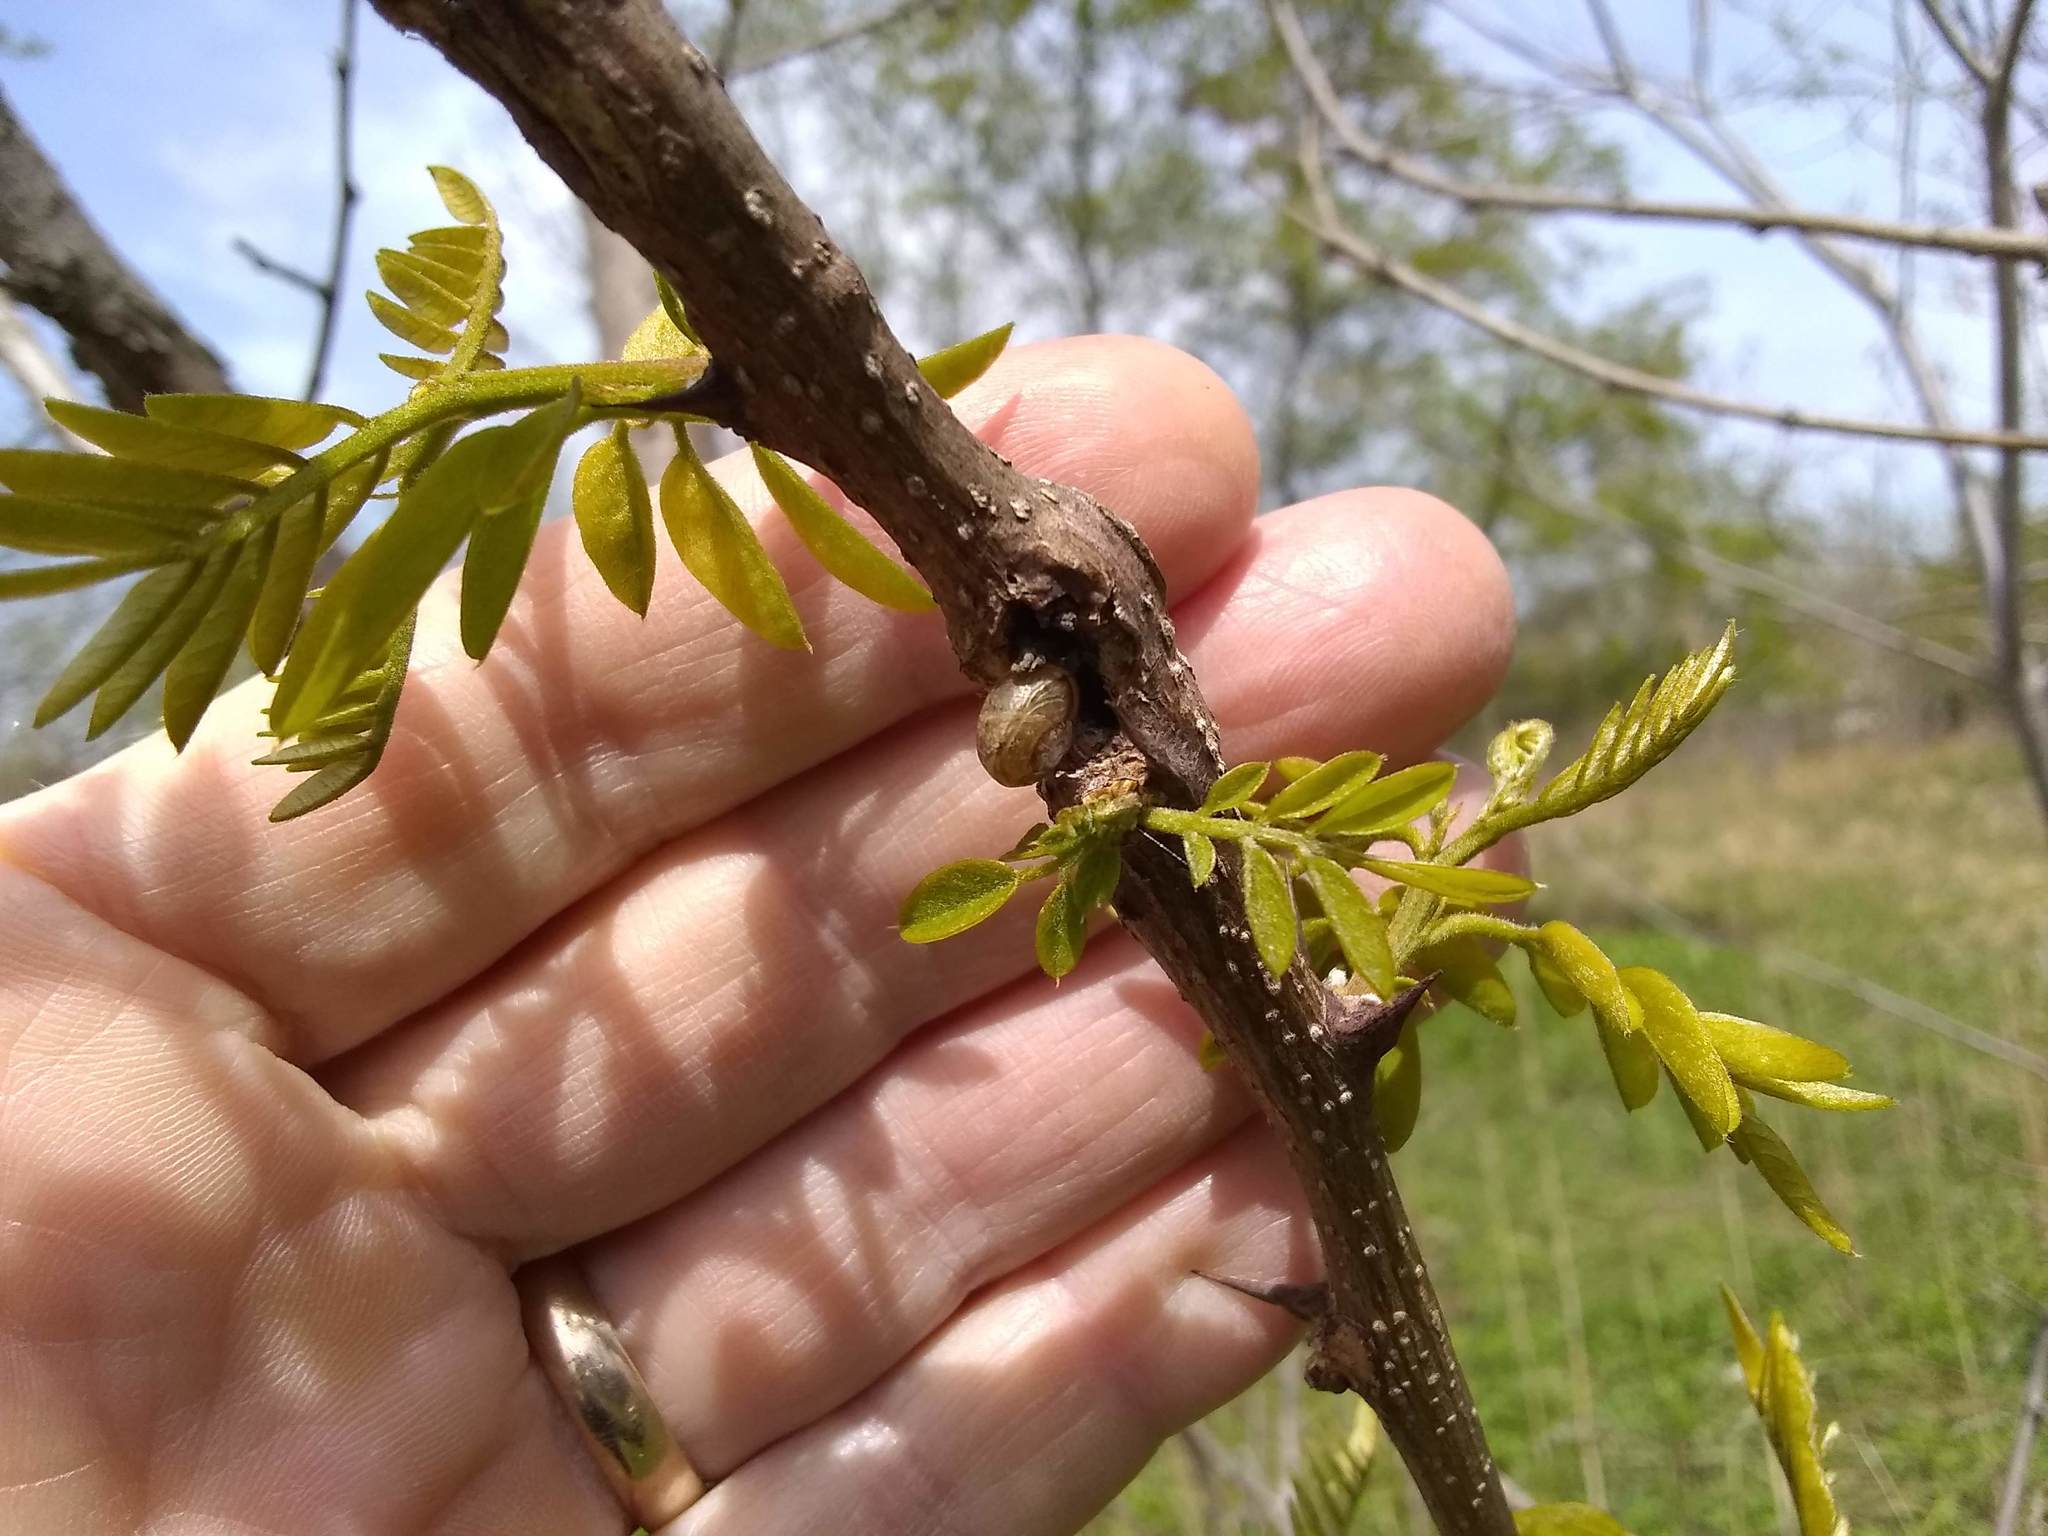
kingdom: Plantae
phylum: Tracheophyta
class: Magnoliopsida
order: Fabales
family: Fabaceae
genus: Robinia
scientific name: Robinia pseudoacacia
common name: Black locust
